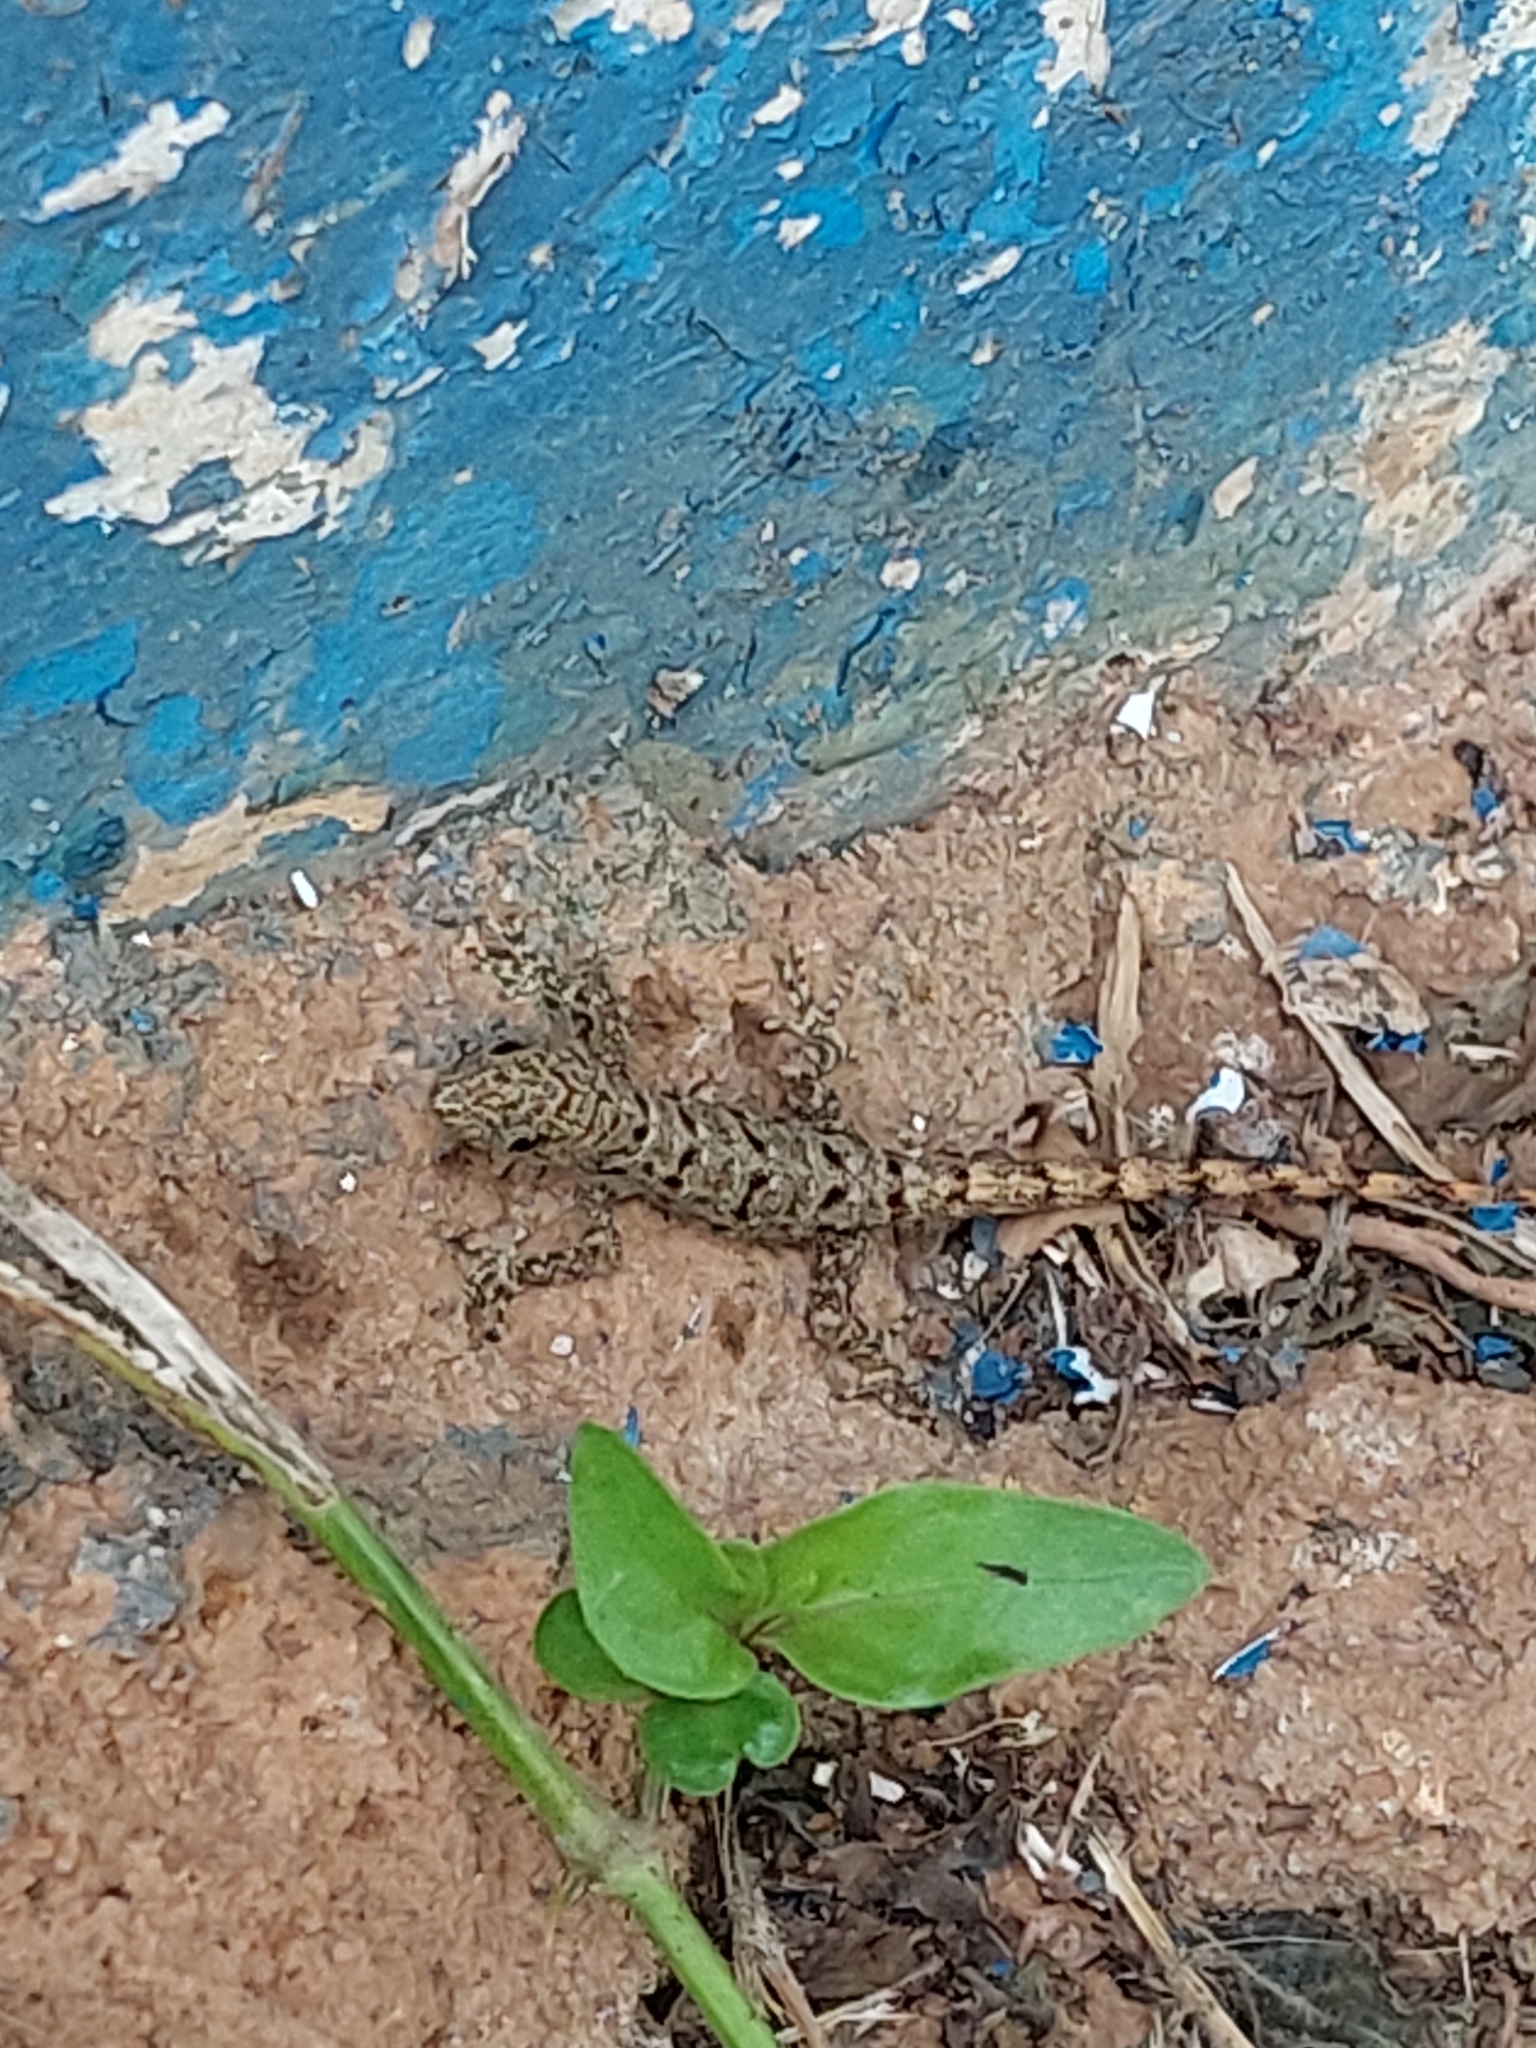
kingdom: Animalia
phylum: Chordata
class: Squamata
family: Sphaerodactylidae
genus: Gonatodes
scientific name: Gonatodes albogularis
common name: Yellow-headed gecko
